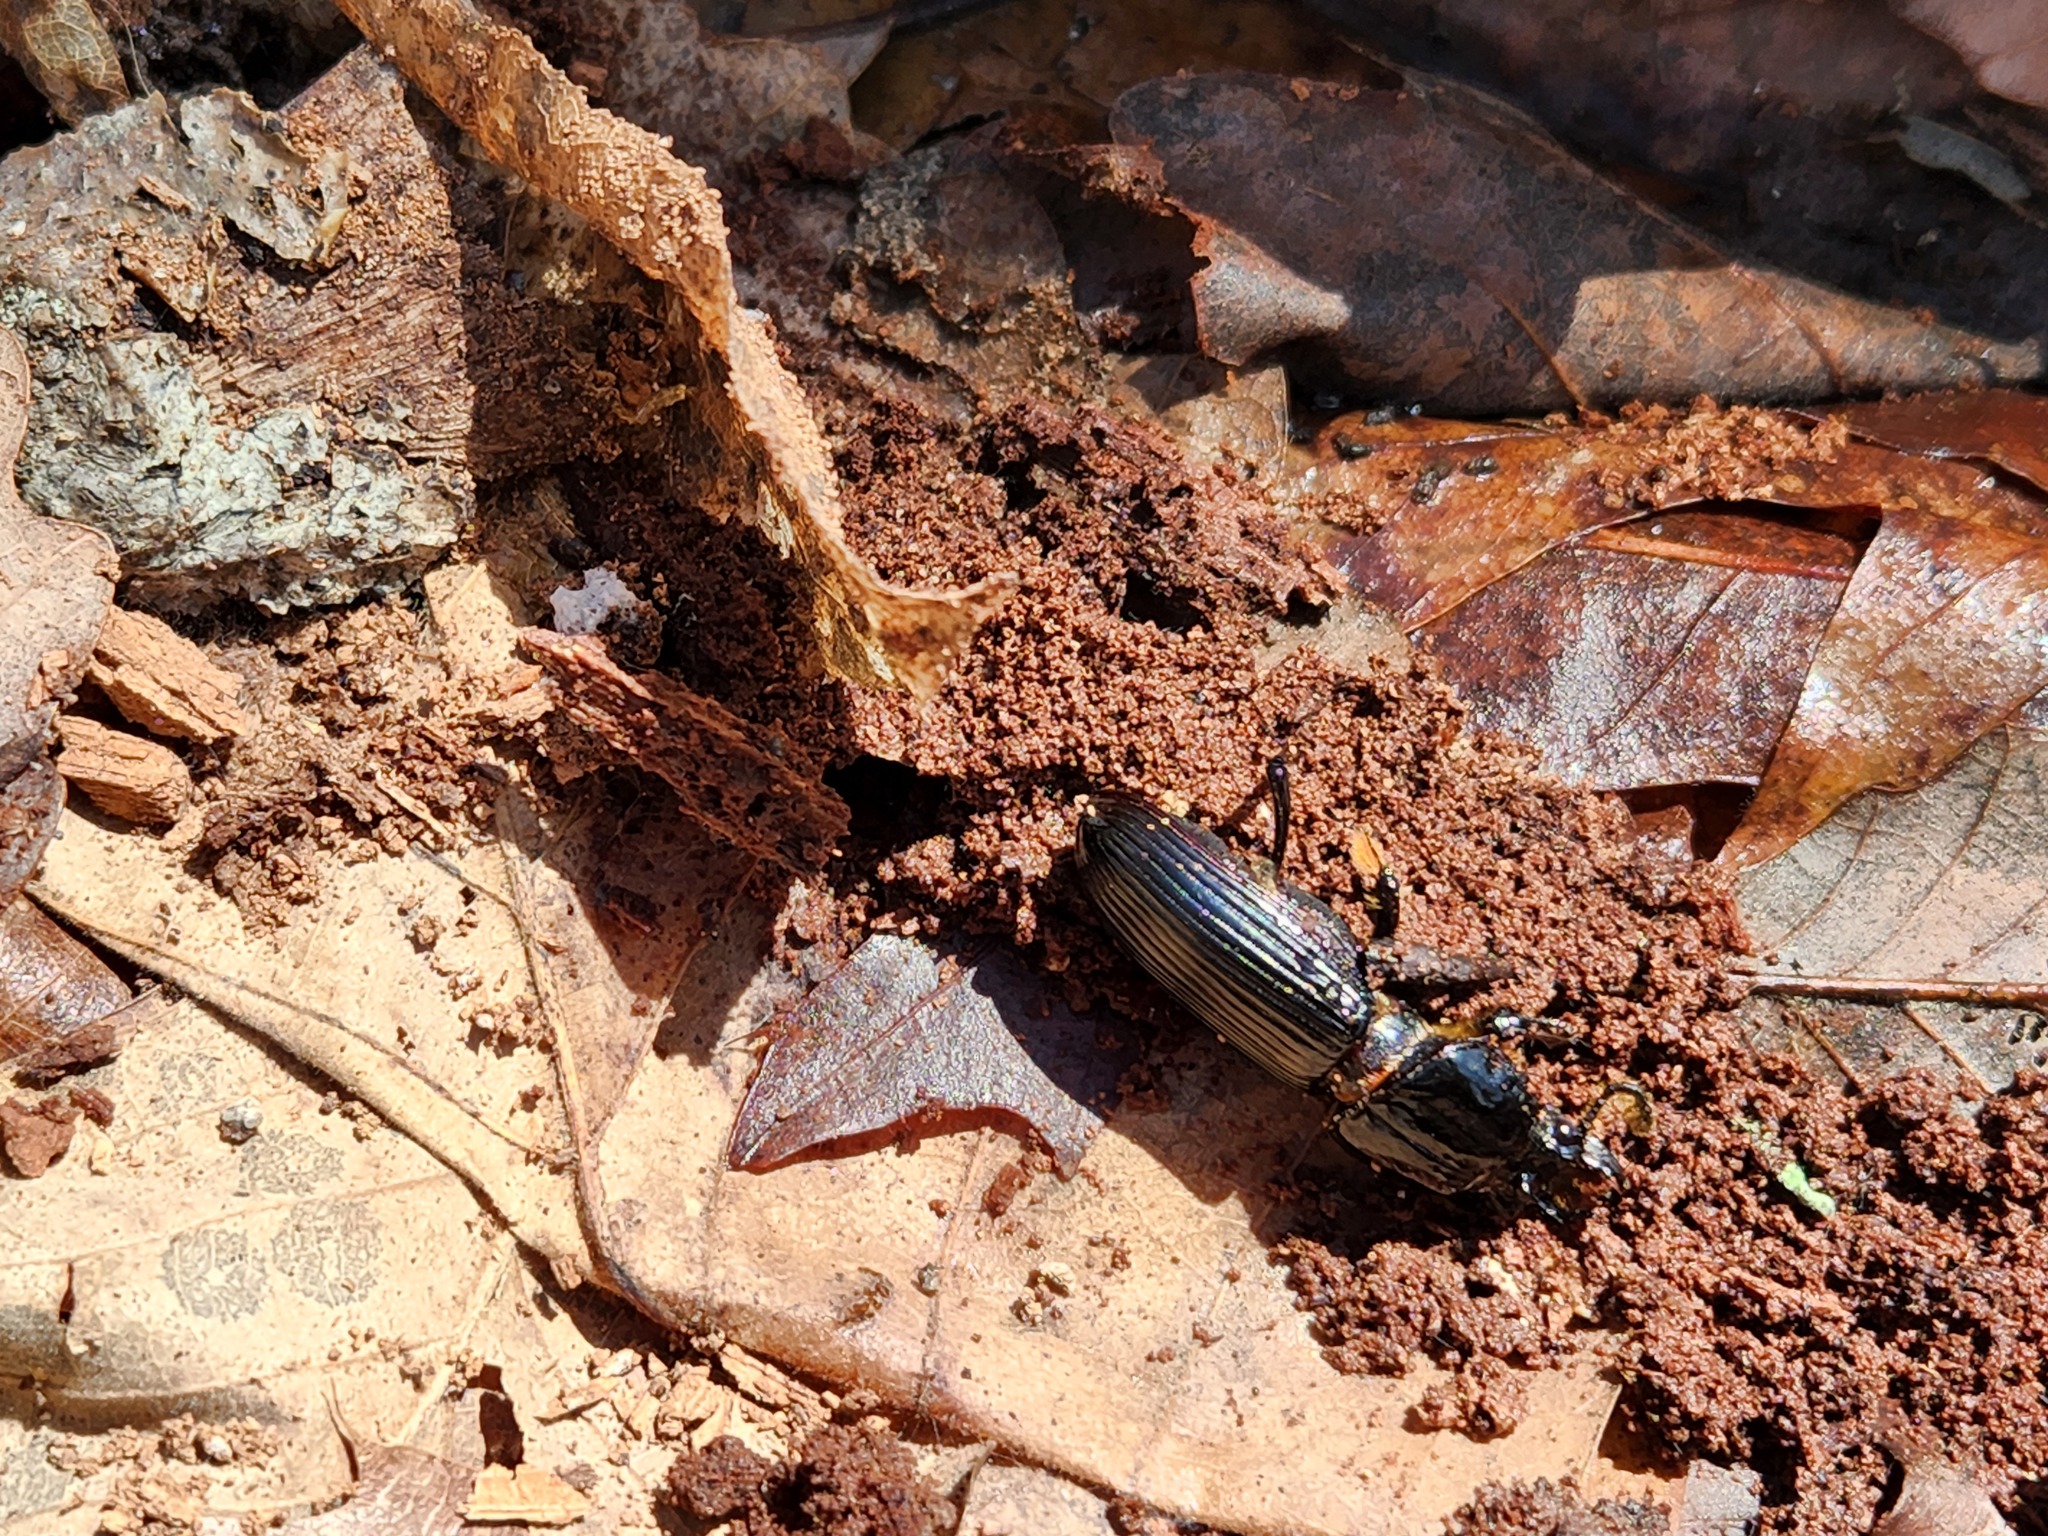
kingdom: Animalia
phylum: Arthropoda
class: Insecta
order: Coleoptera
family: Passalidae
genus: Odontotaenius
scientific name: Odontotaenius disjunctus
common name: Patent leather beetle
